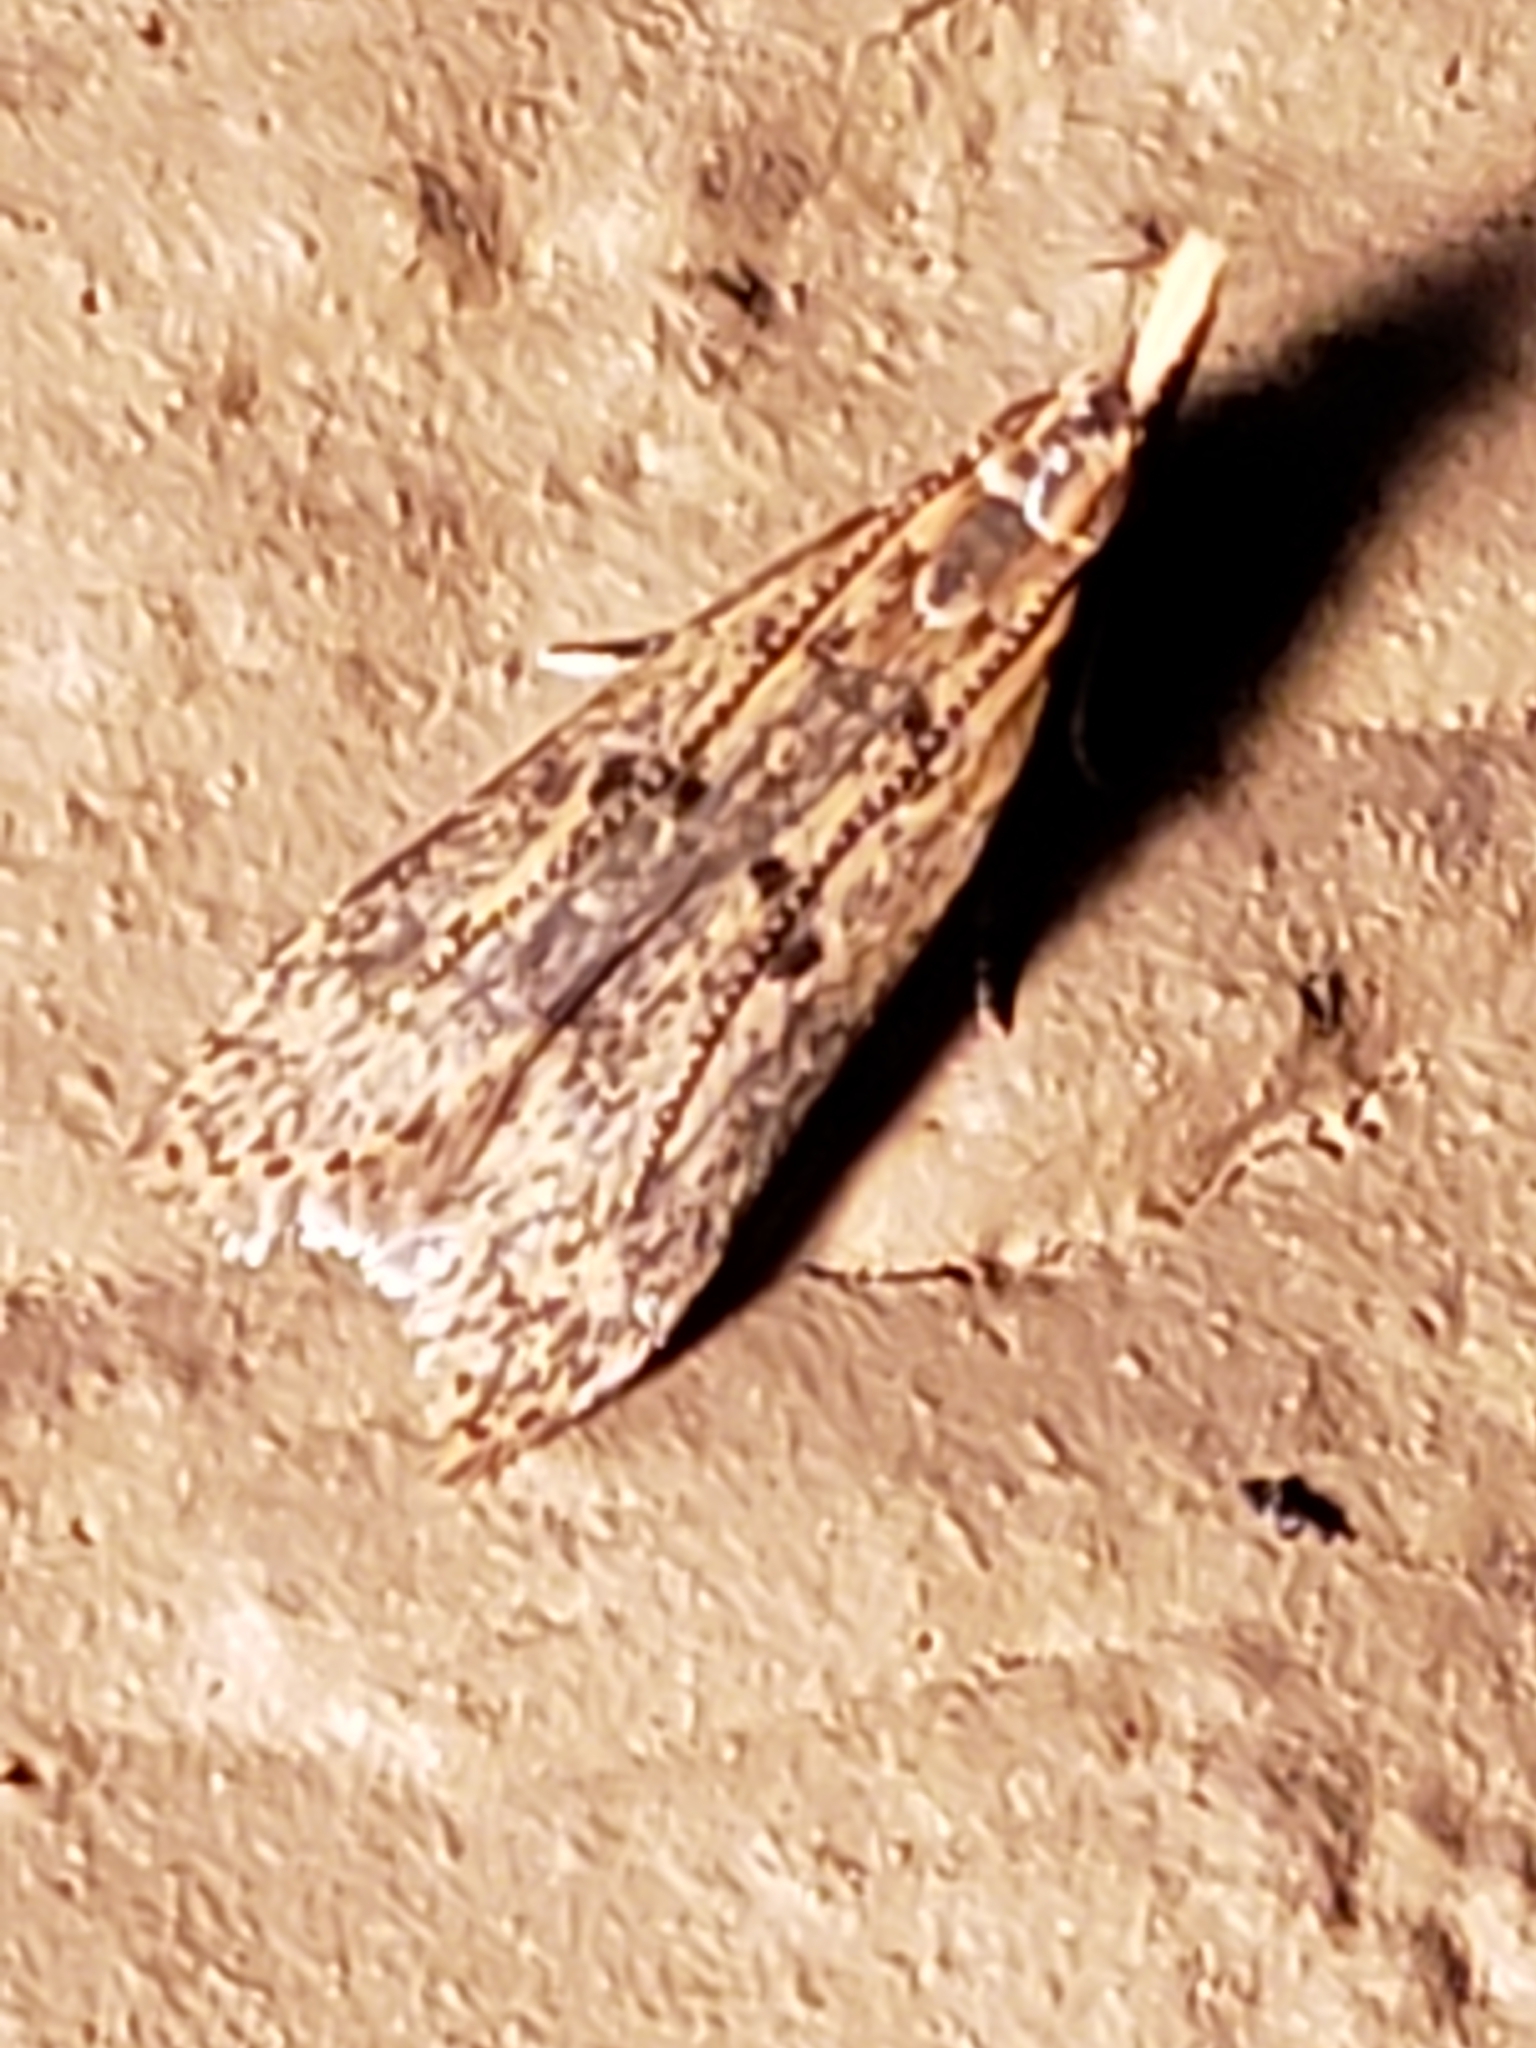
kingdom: Animalia
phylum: Arthropoda
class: Insecta
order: Lepidoptera
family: Gelechiidae
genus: Dichomeris
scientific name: Dichomeris punctipennella
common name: Many-spotted dichomeris moth
